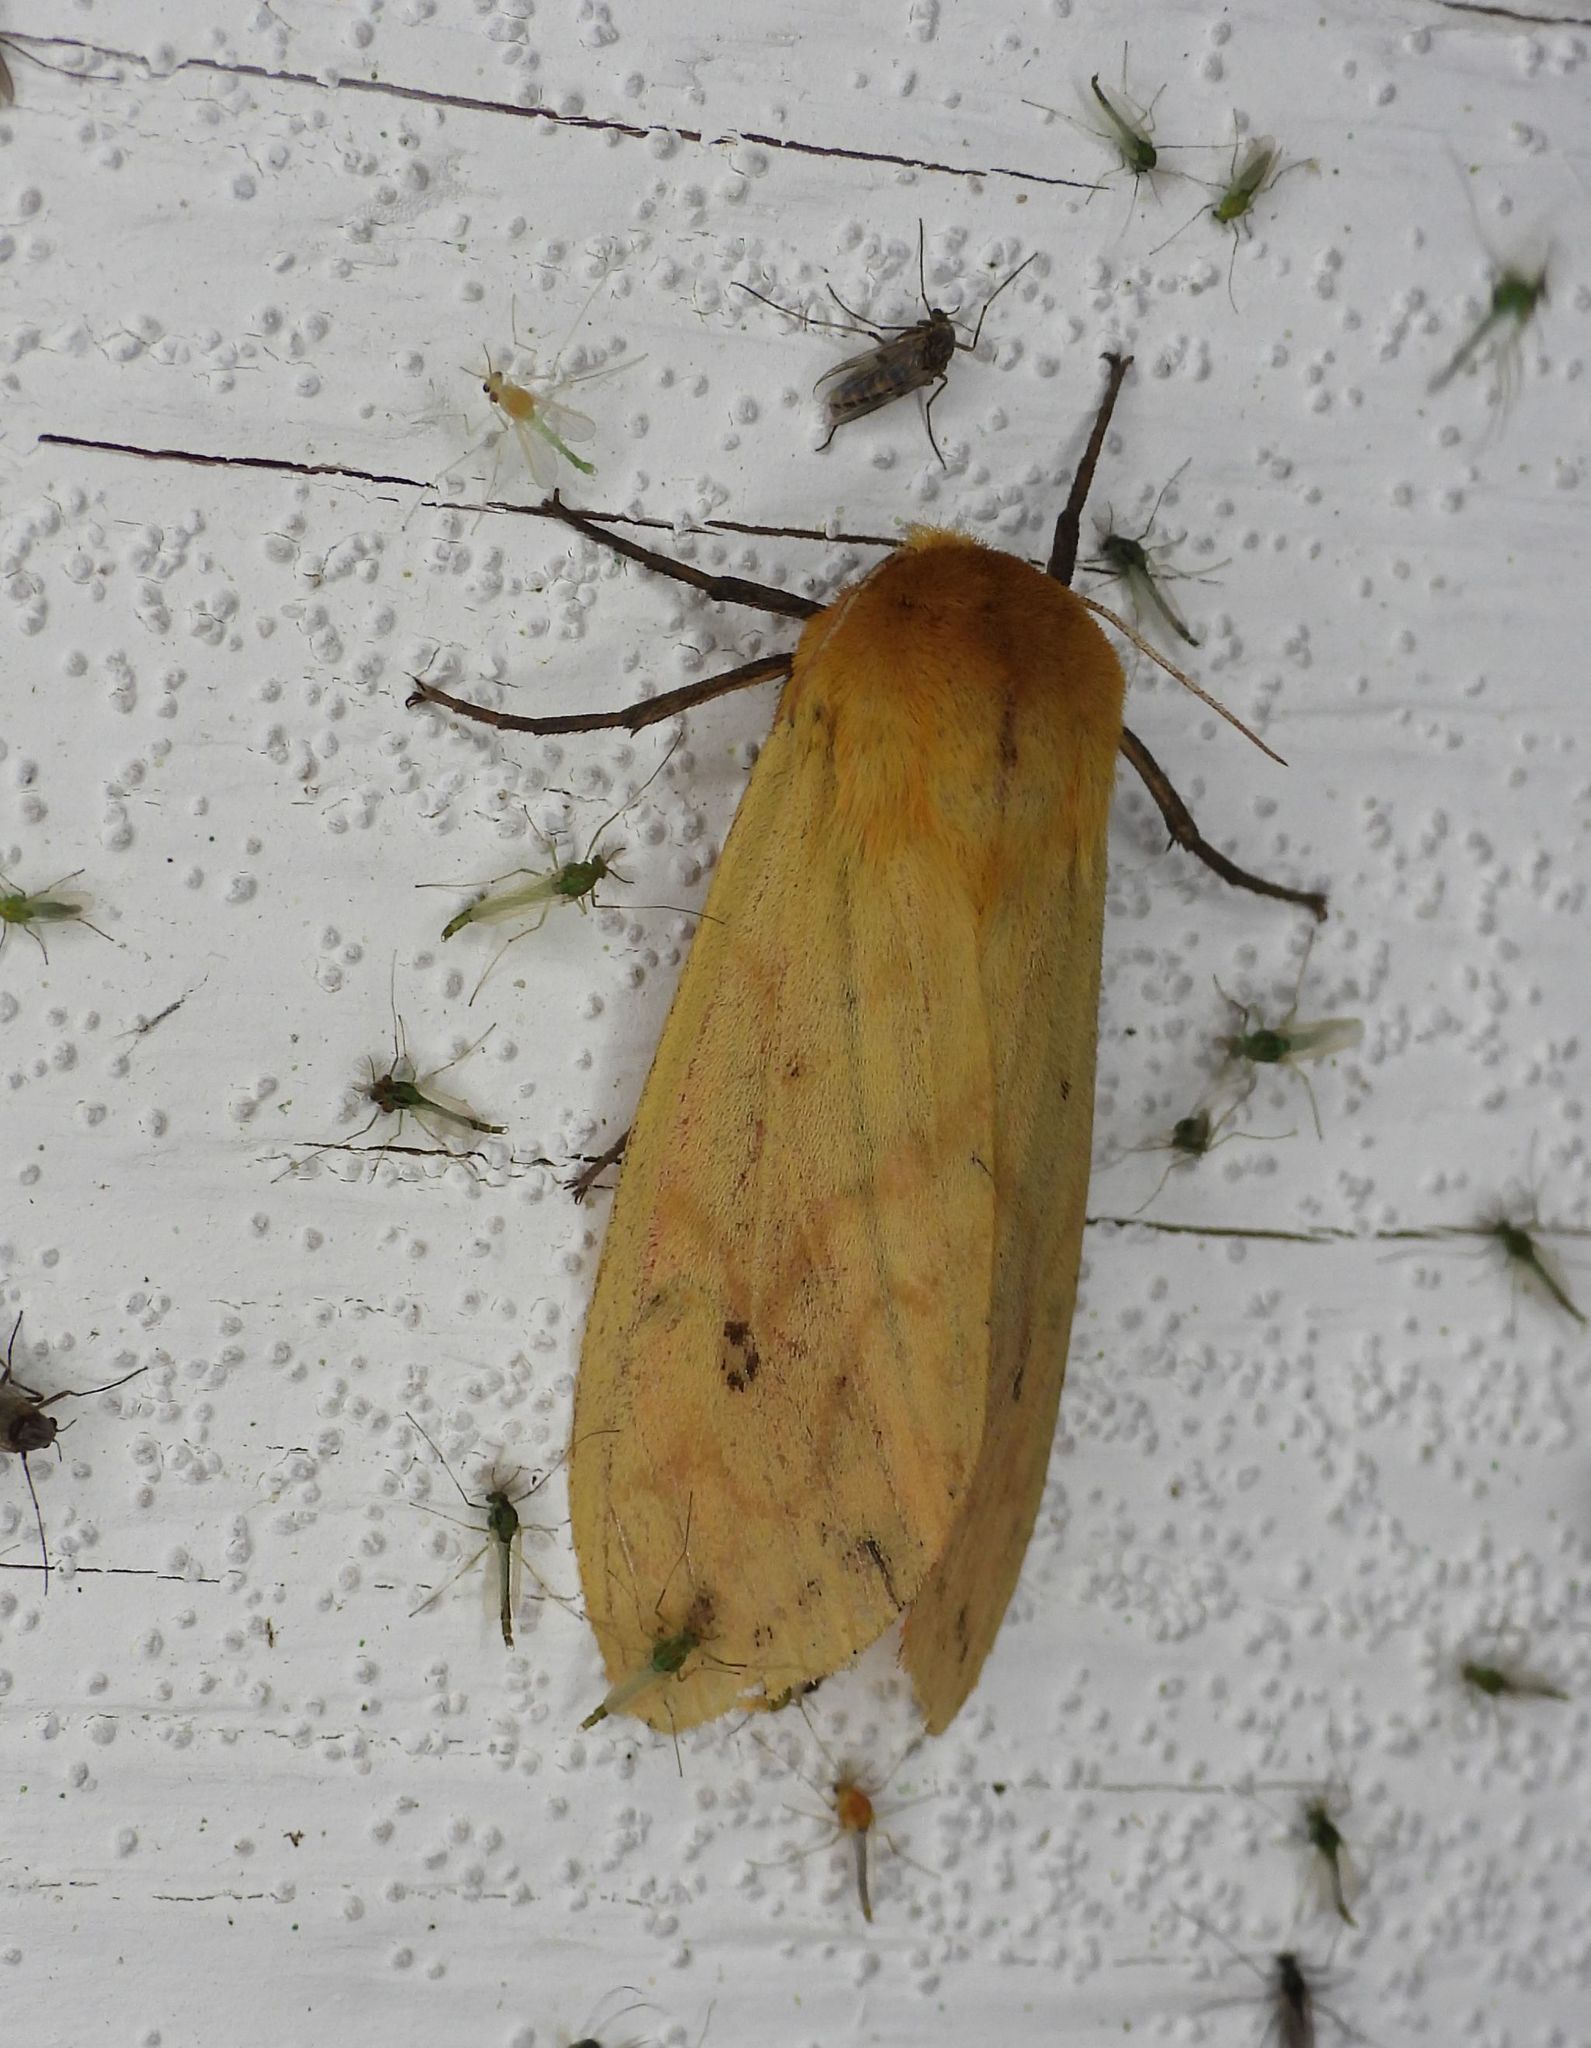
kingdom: Animalia
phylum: Arthropoda
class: Insecta
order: Lepidoptera
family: Erebidae
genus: Pyrrharctia
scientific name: Pyrrharctia isabella
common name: Isabella tiger moth
